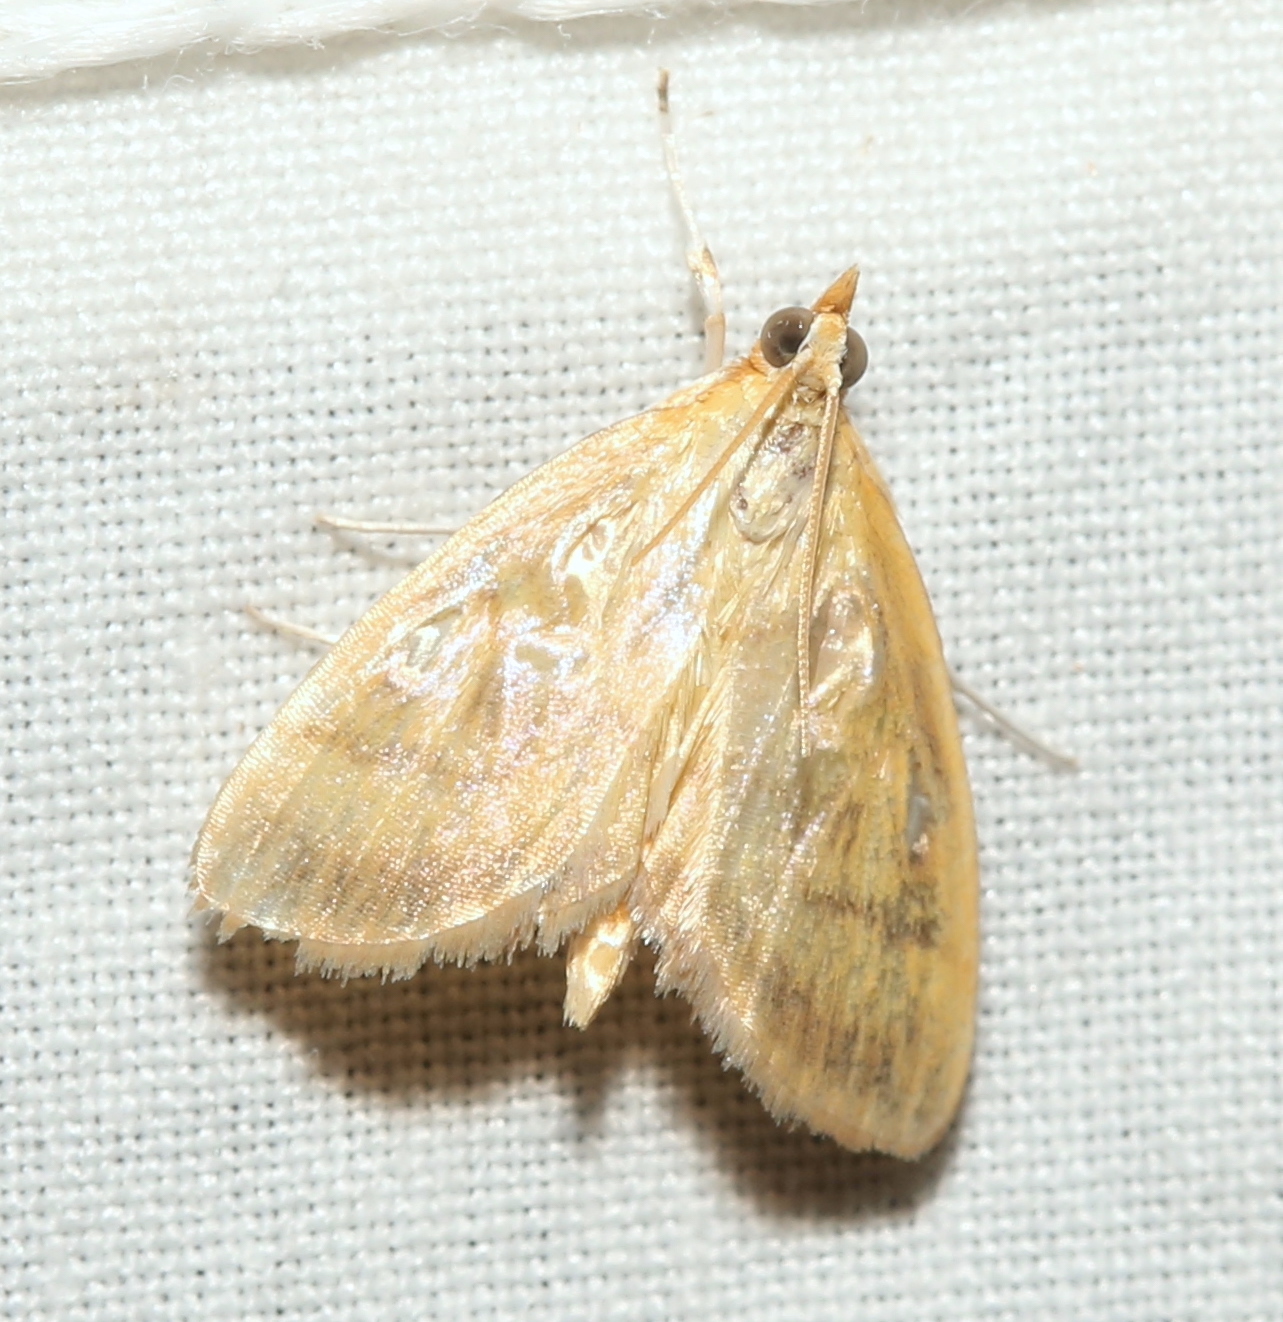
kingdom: Animalia
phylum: Arthropoda
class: Insecta
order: Lepidoptera
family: Crambidae
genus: Crocidophora
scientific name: Crocidophora tuberculalis
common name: Pale-winged crocidiphora moth
